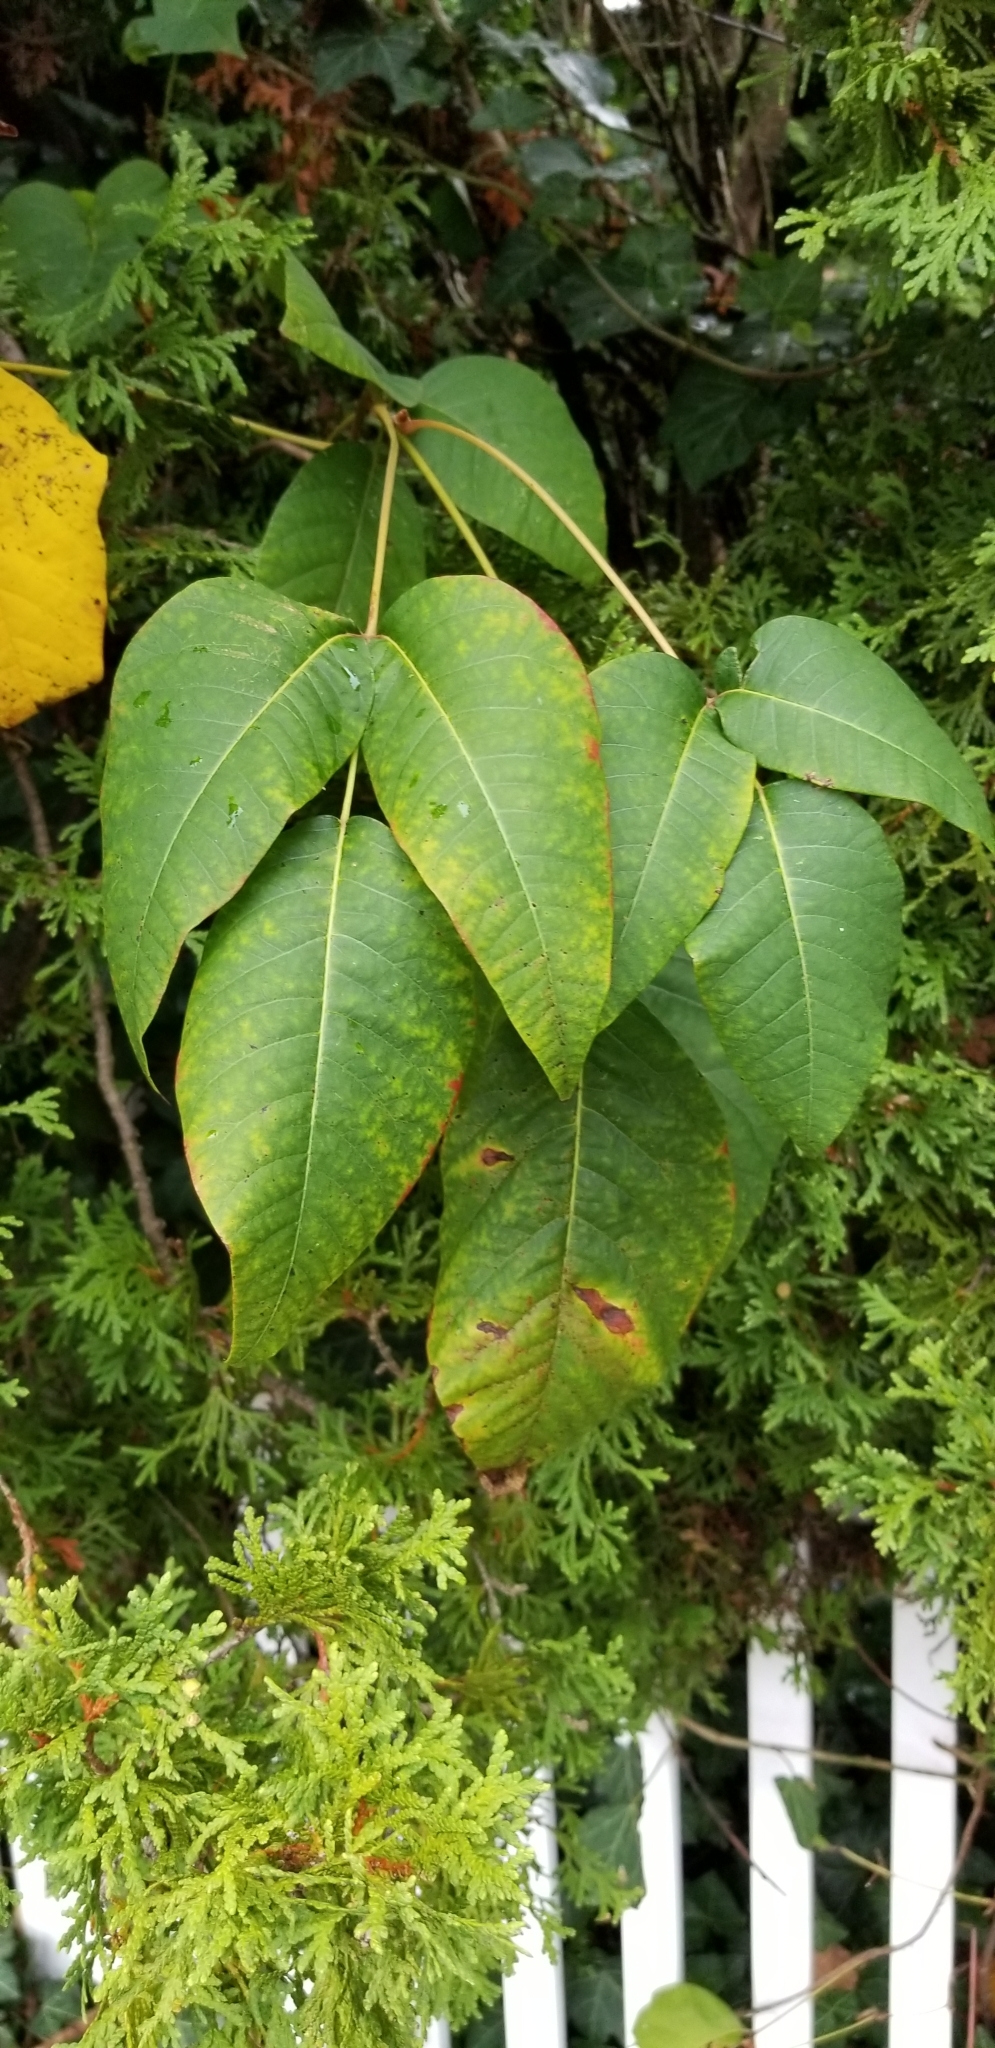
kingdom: Plantae
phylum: Tracheophyta
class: Magnoliopsida
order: Sapindales
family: Anacardiaceae
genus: Toxicodendron
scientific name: Toxicodendron radicans
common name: Poison ivy
